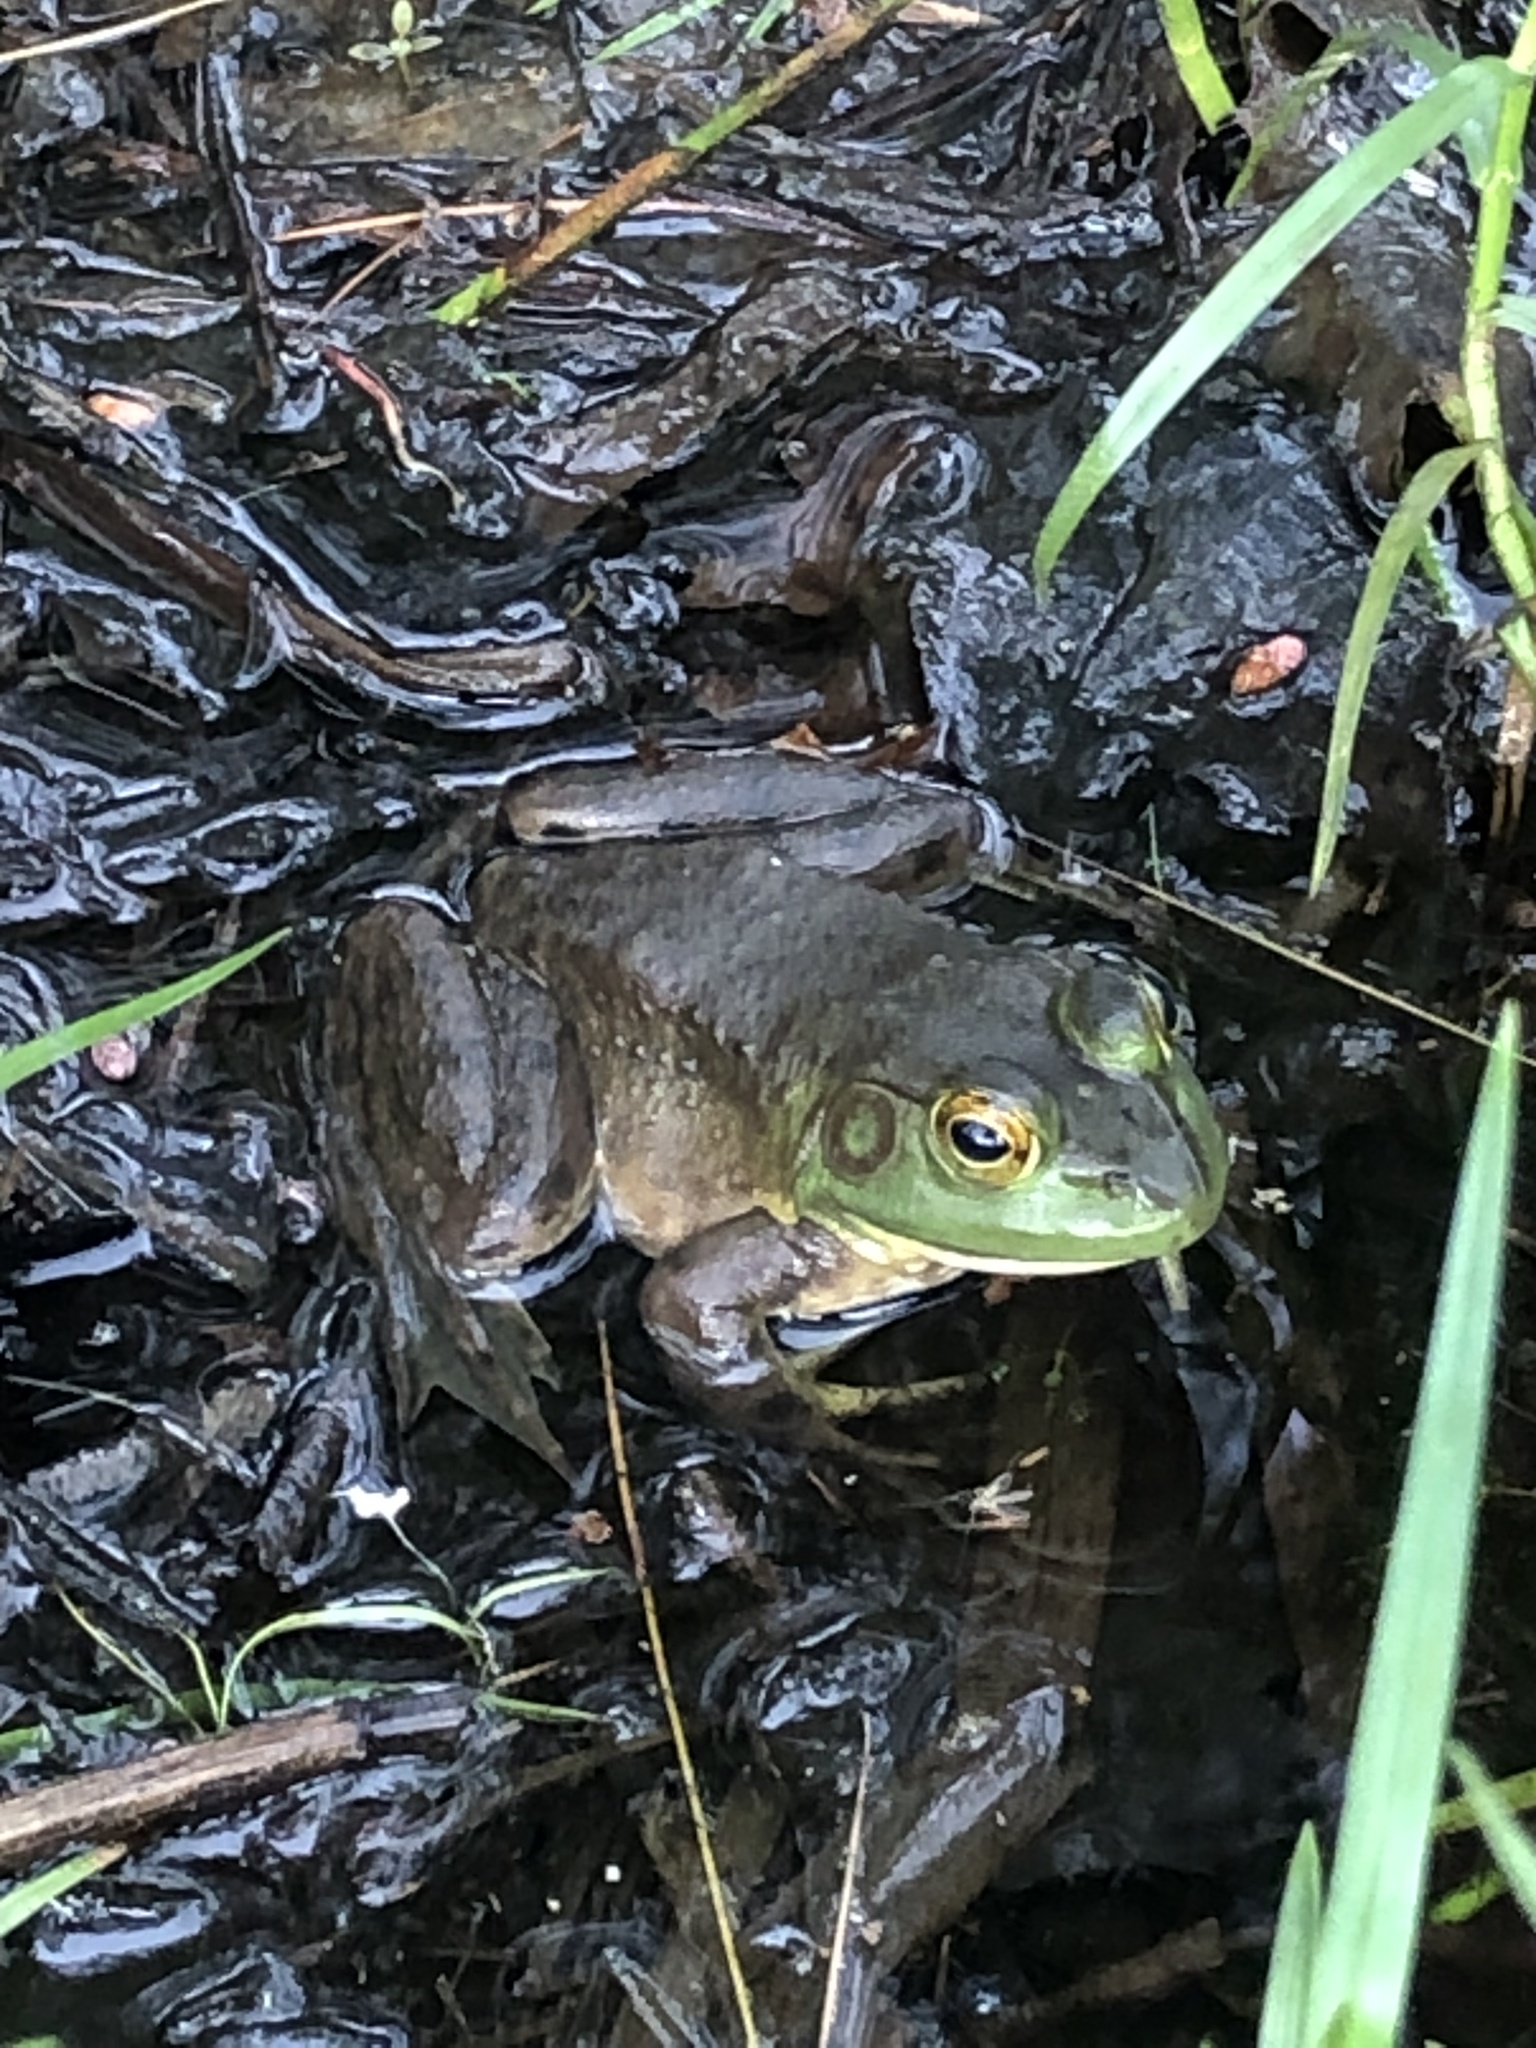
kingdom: Animalia
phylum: Chordata
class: Amphibia
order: Anura
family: Ranidae
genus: Lithobates
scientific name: Lithobates catesbeianus
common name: American bullfrog
